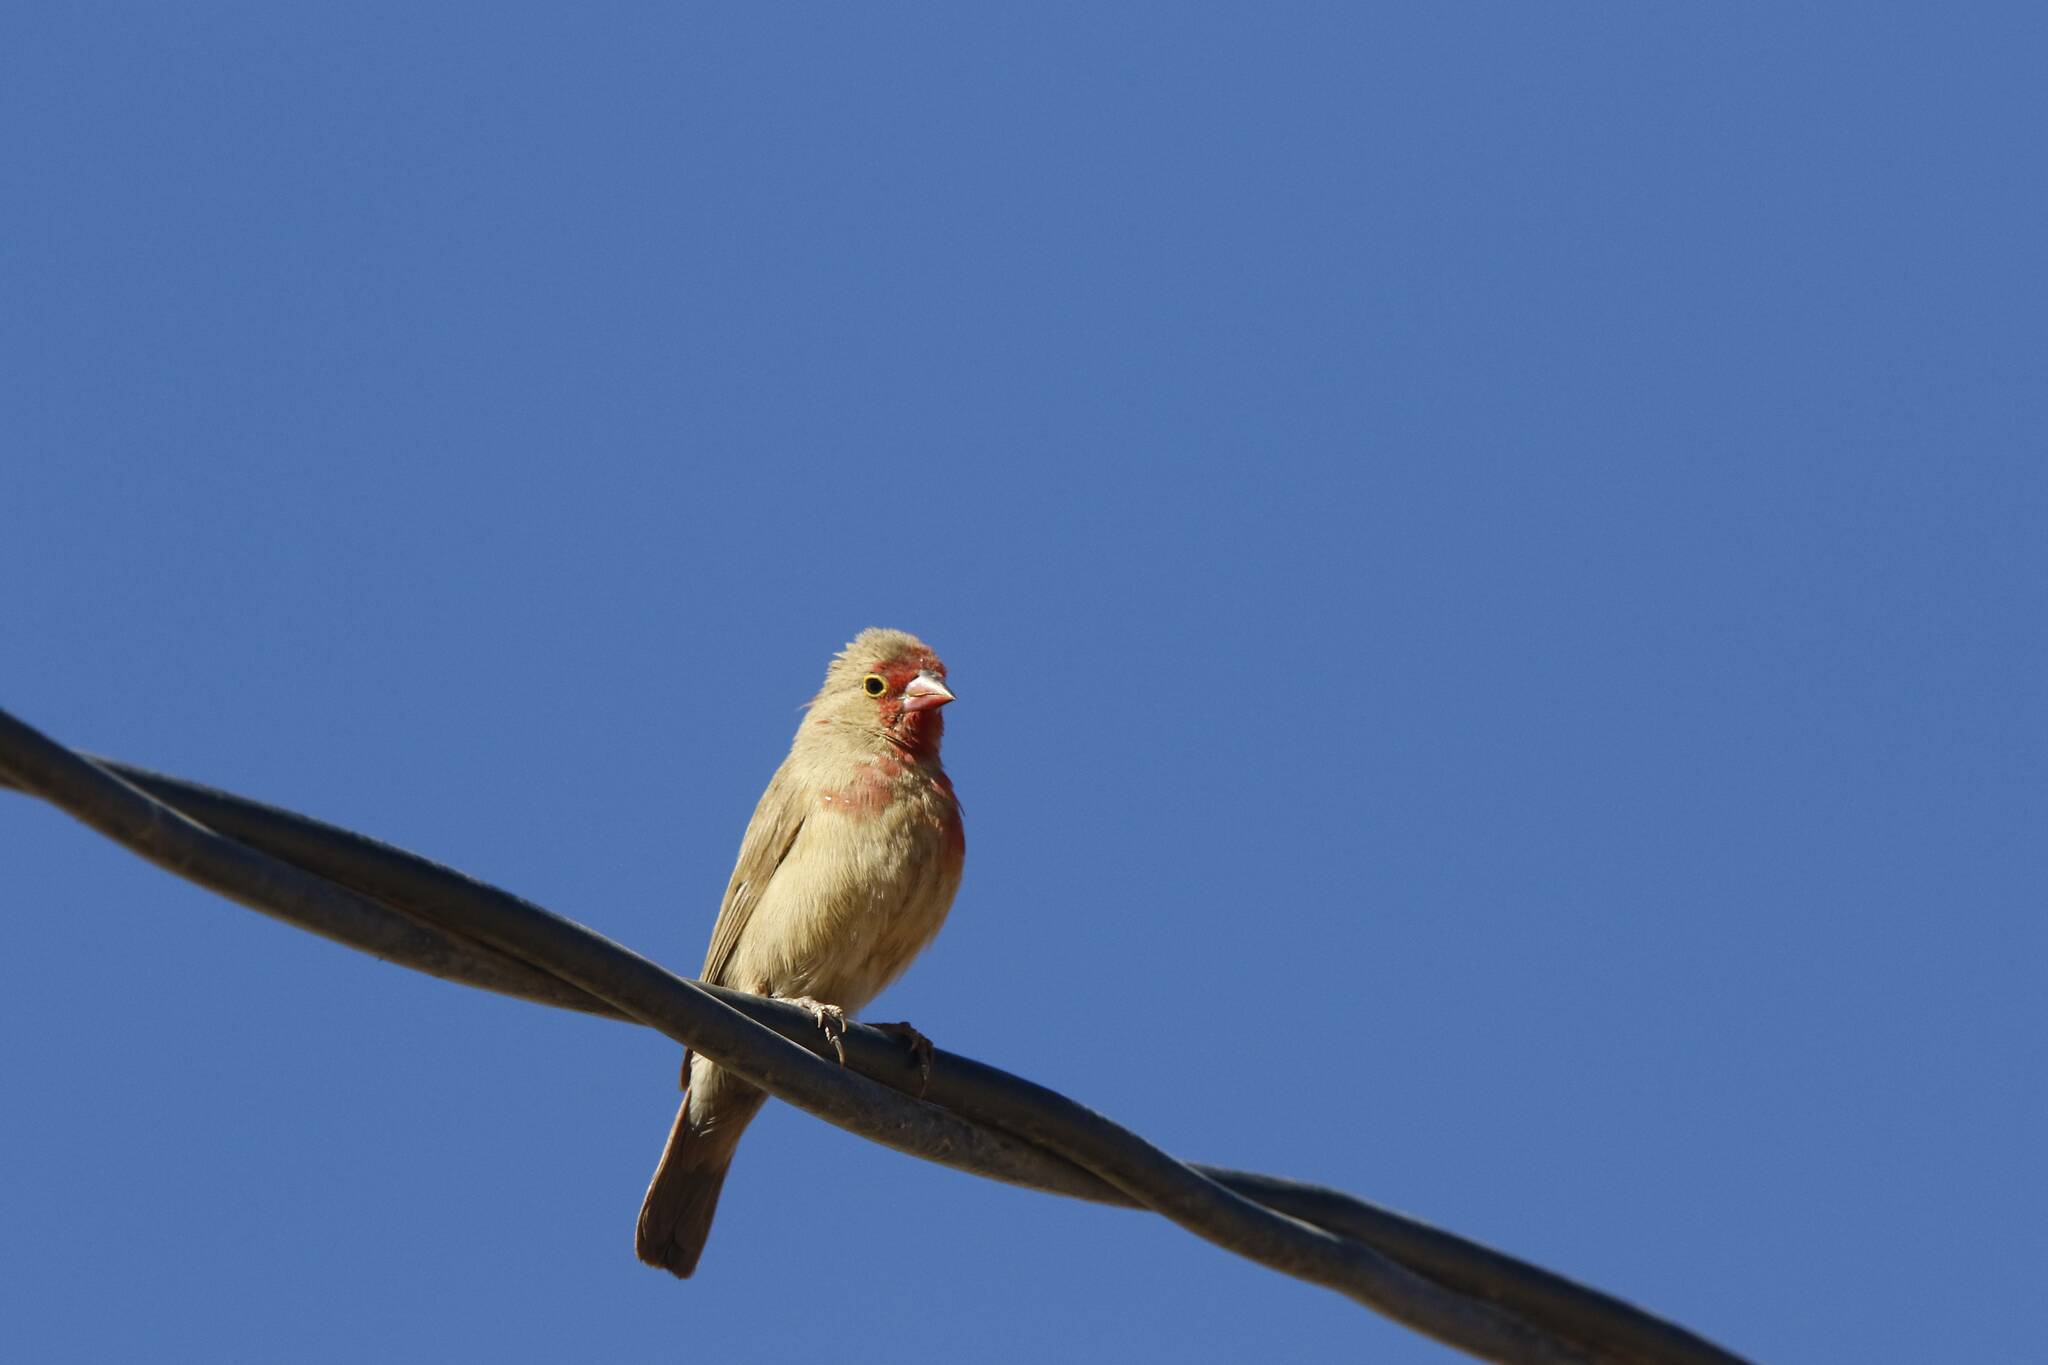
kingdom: Animalia
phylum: Chordata
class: Aves
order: Passeriformes
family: Estrildidae
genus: Lagonosticta
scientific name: Lagonosticta senegala
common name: Red-billed firefinch
